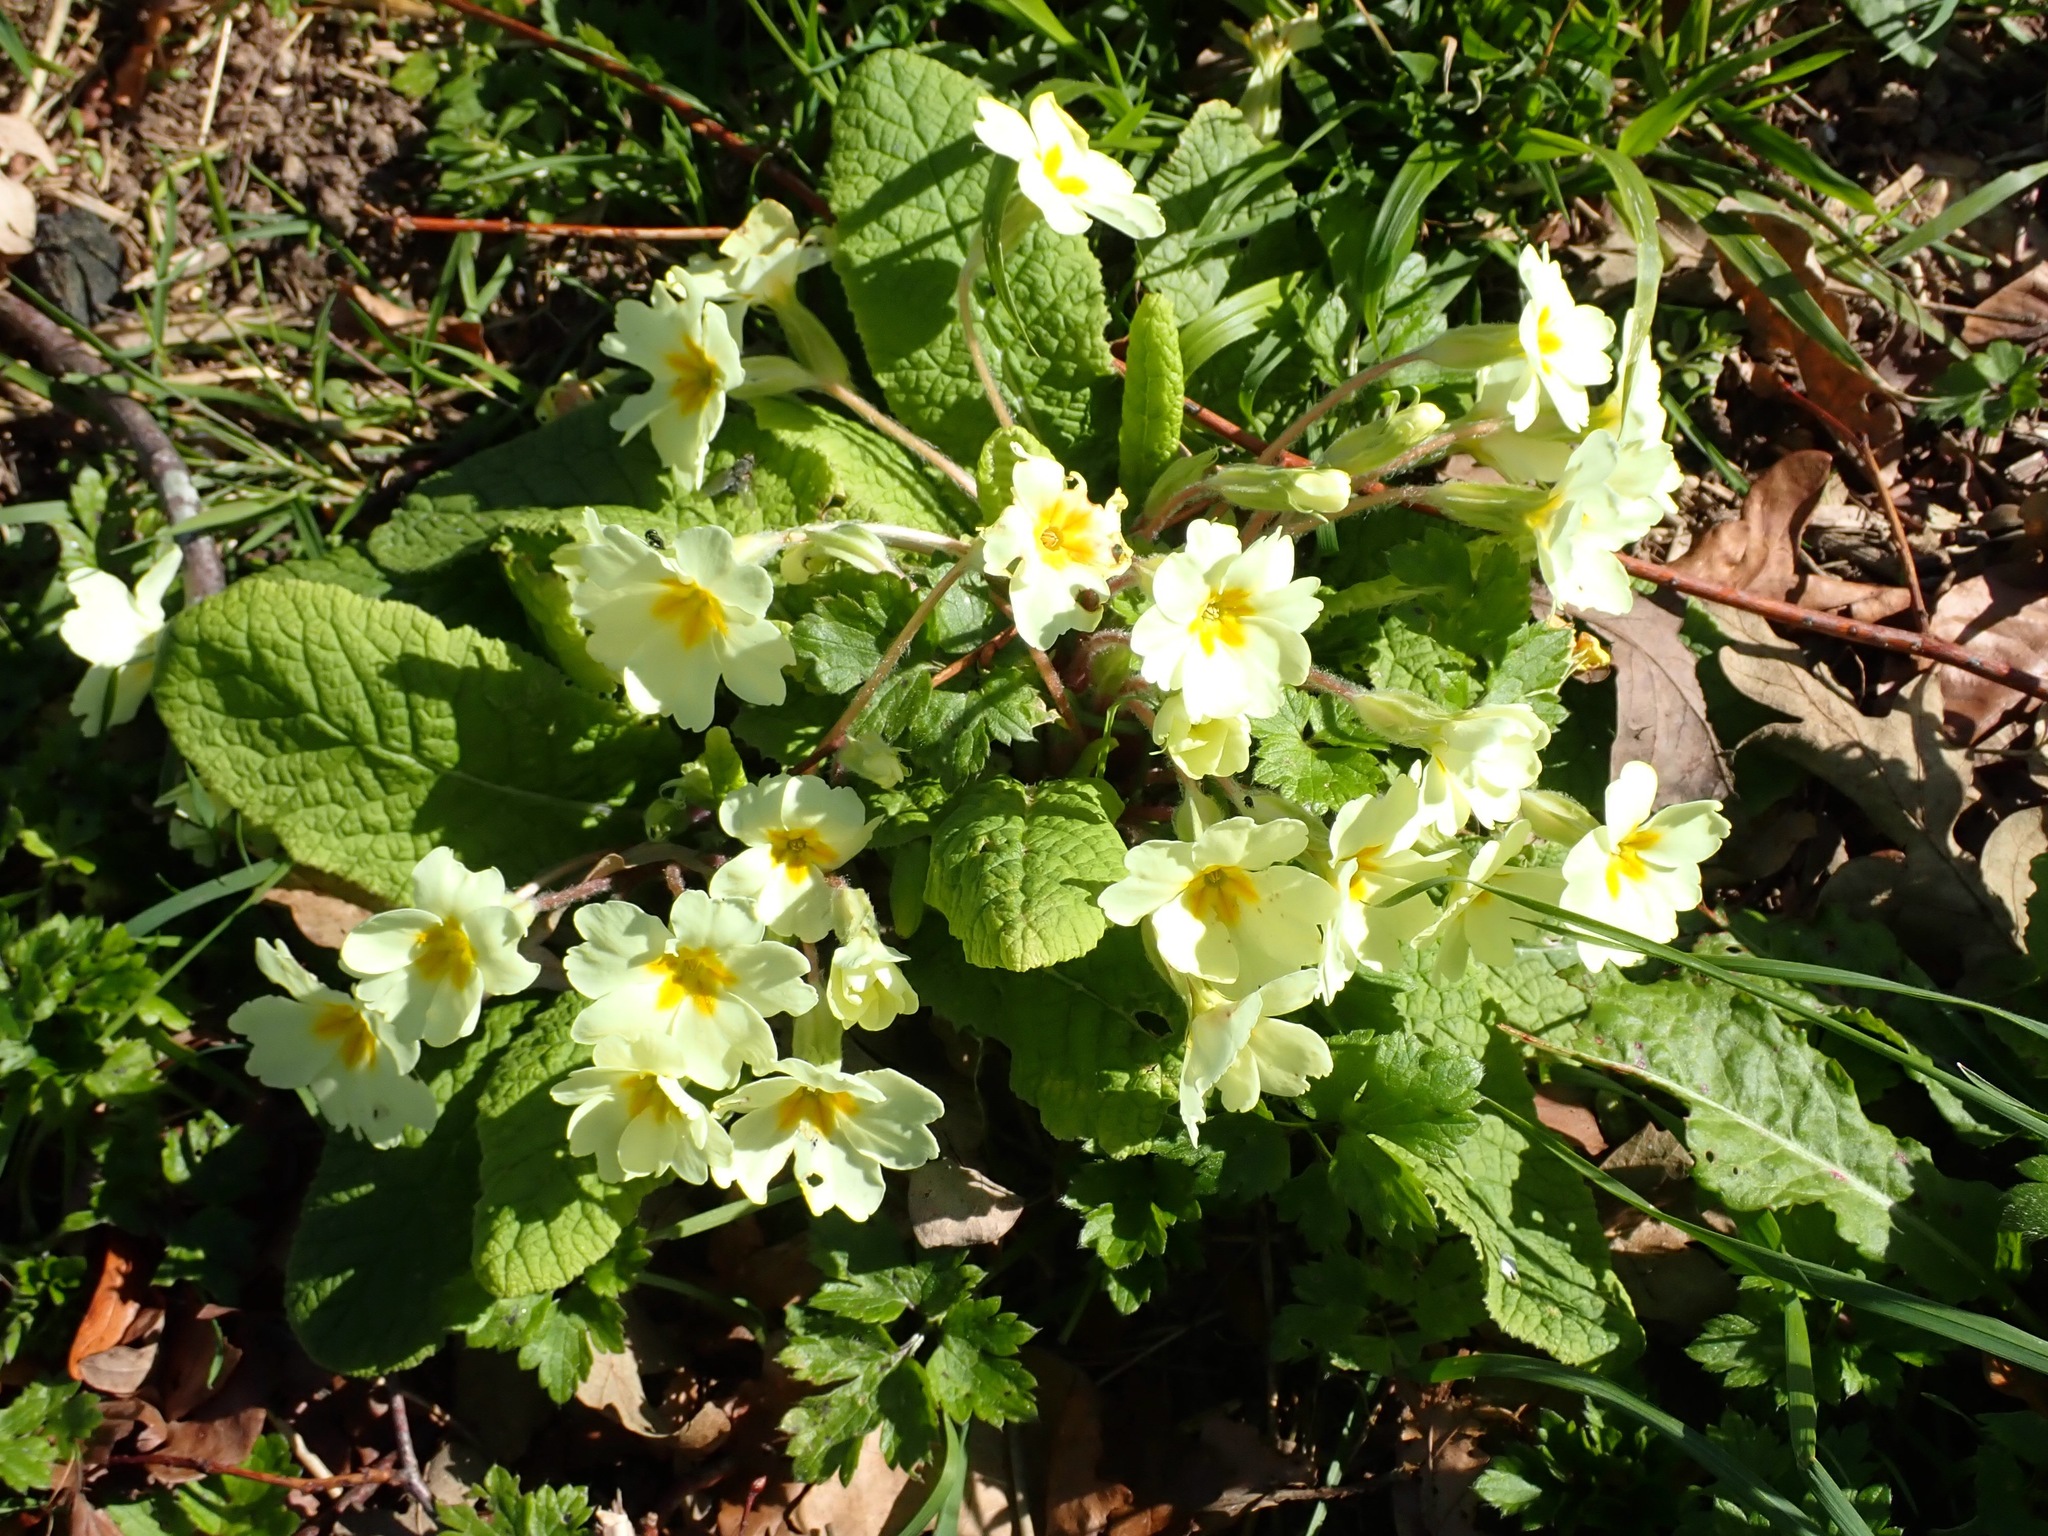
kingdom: Plantae
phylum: Tracheophyta
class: Magnoliopsida
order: Ericales
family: Primulaceae
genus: Primula
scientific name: Primula vulgaris
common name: Primrose
